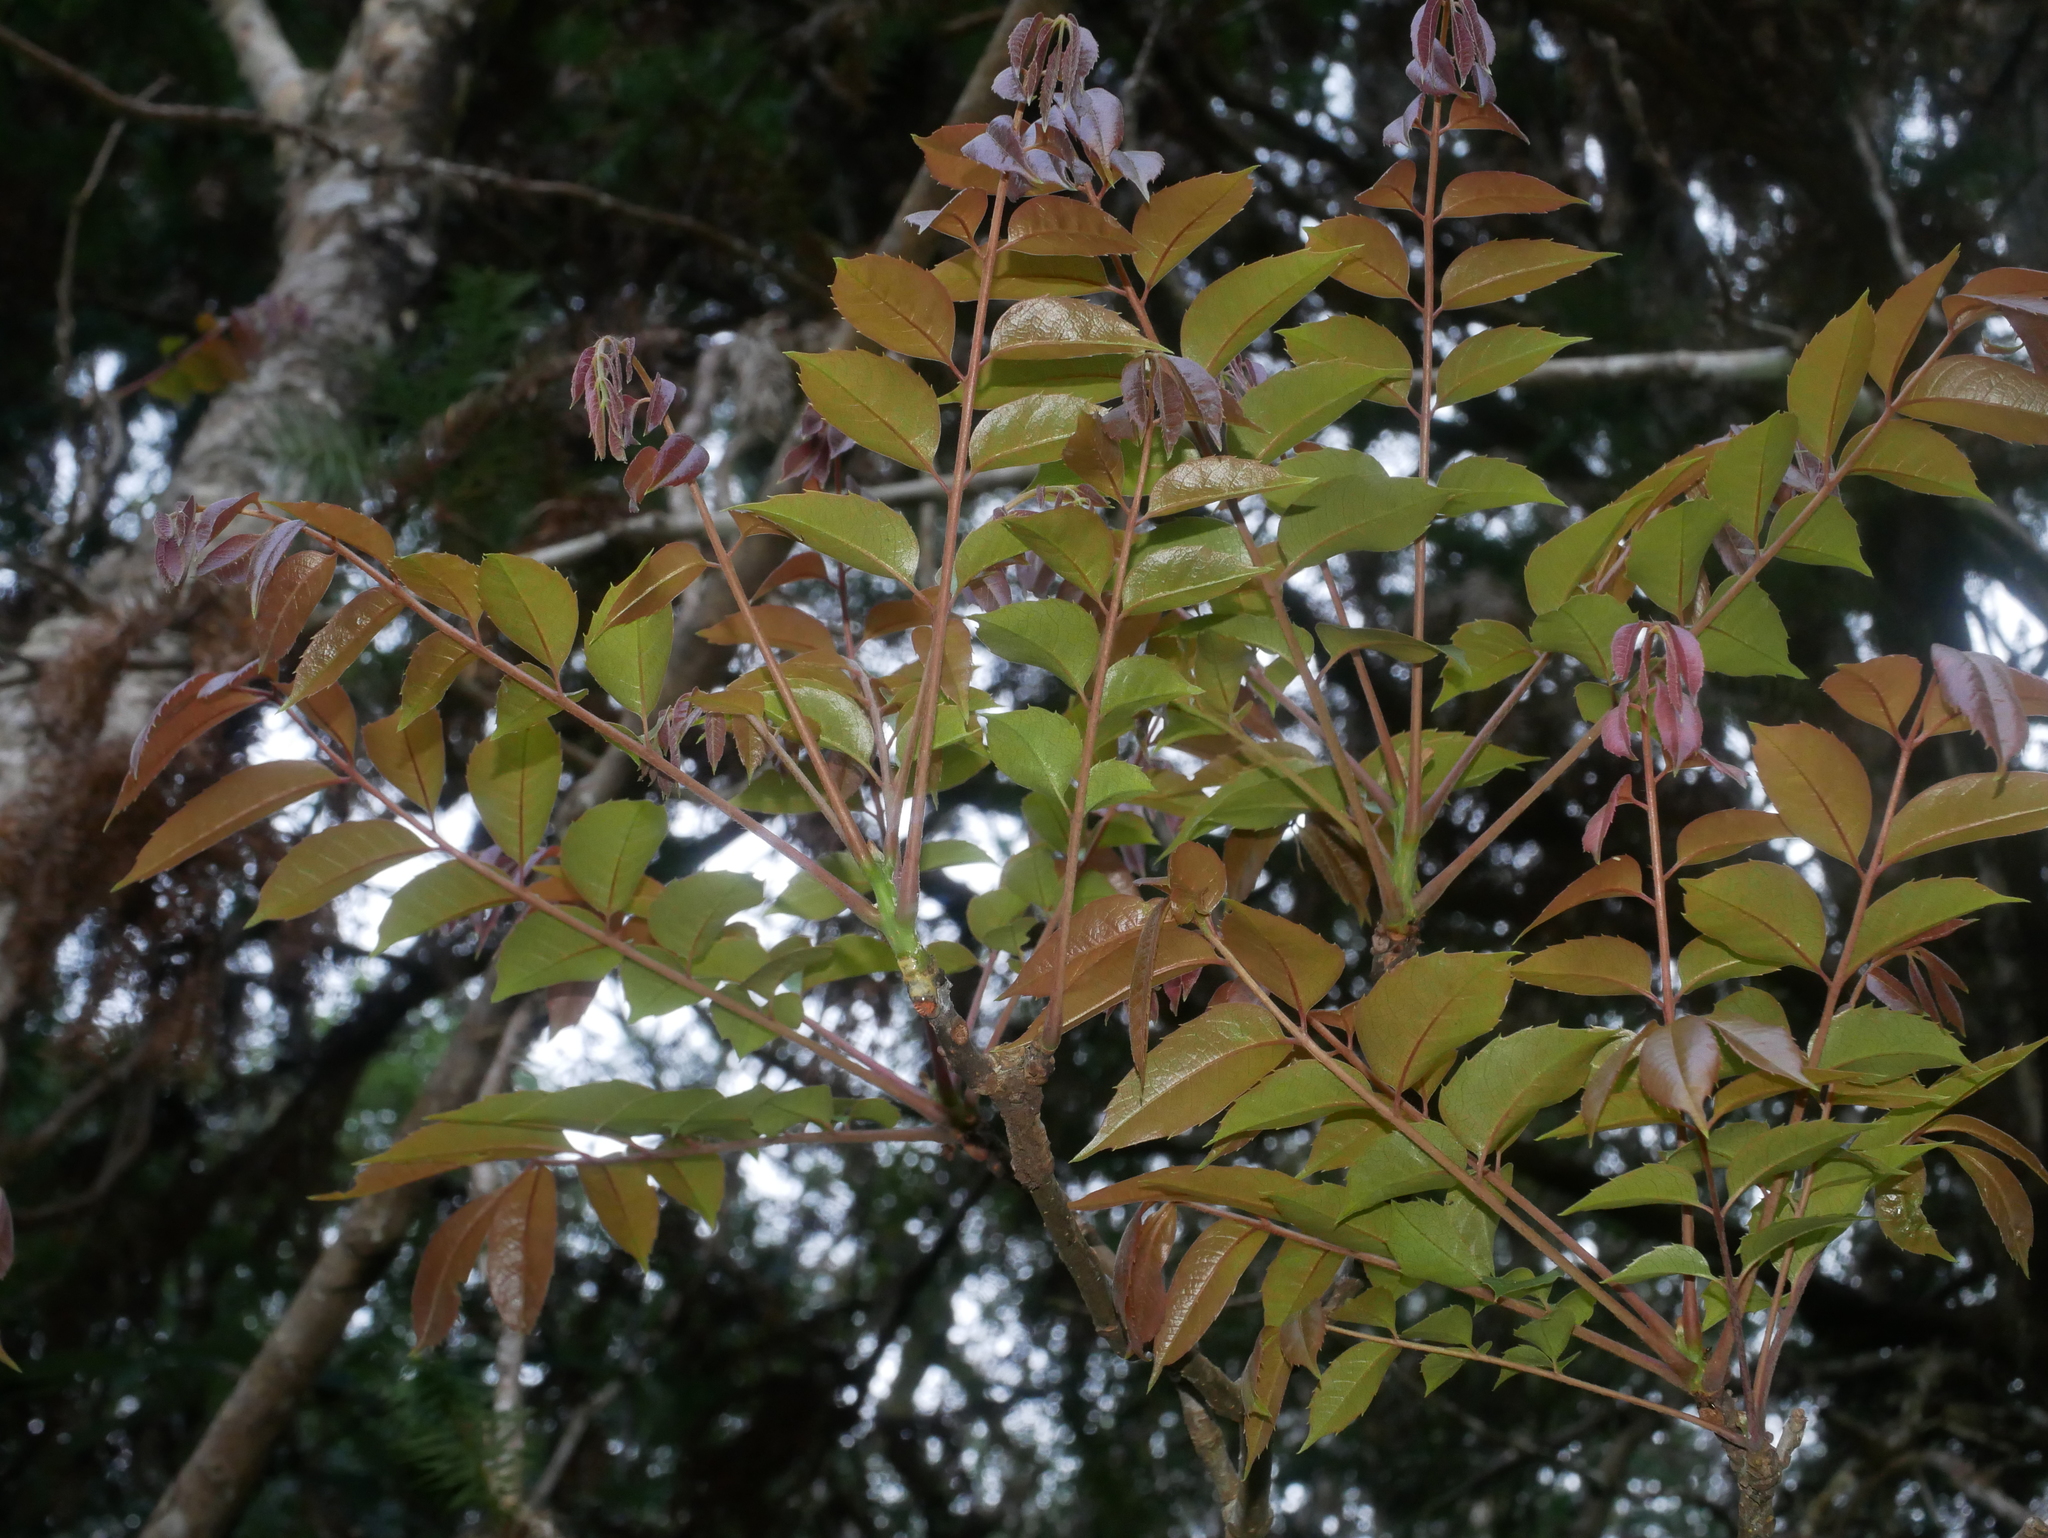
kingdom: Plantae
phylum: Tracheophyta
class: Magnoliopsida
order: Proteales
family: Sabiaceae
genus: Meliosma
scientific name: Meliosma rhoifolia
